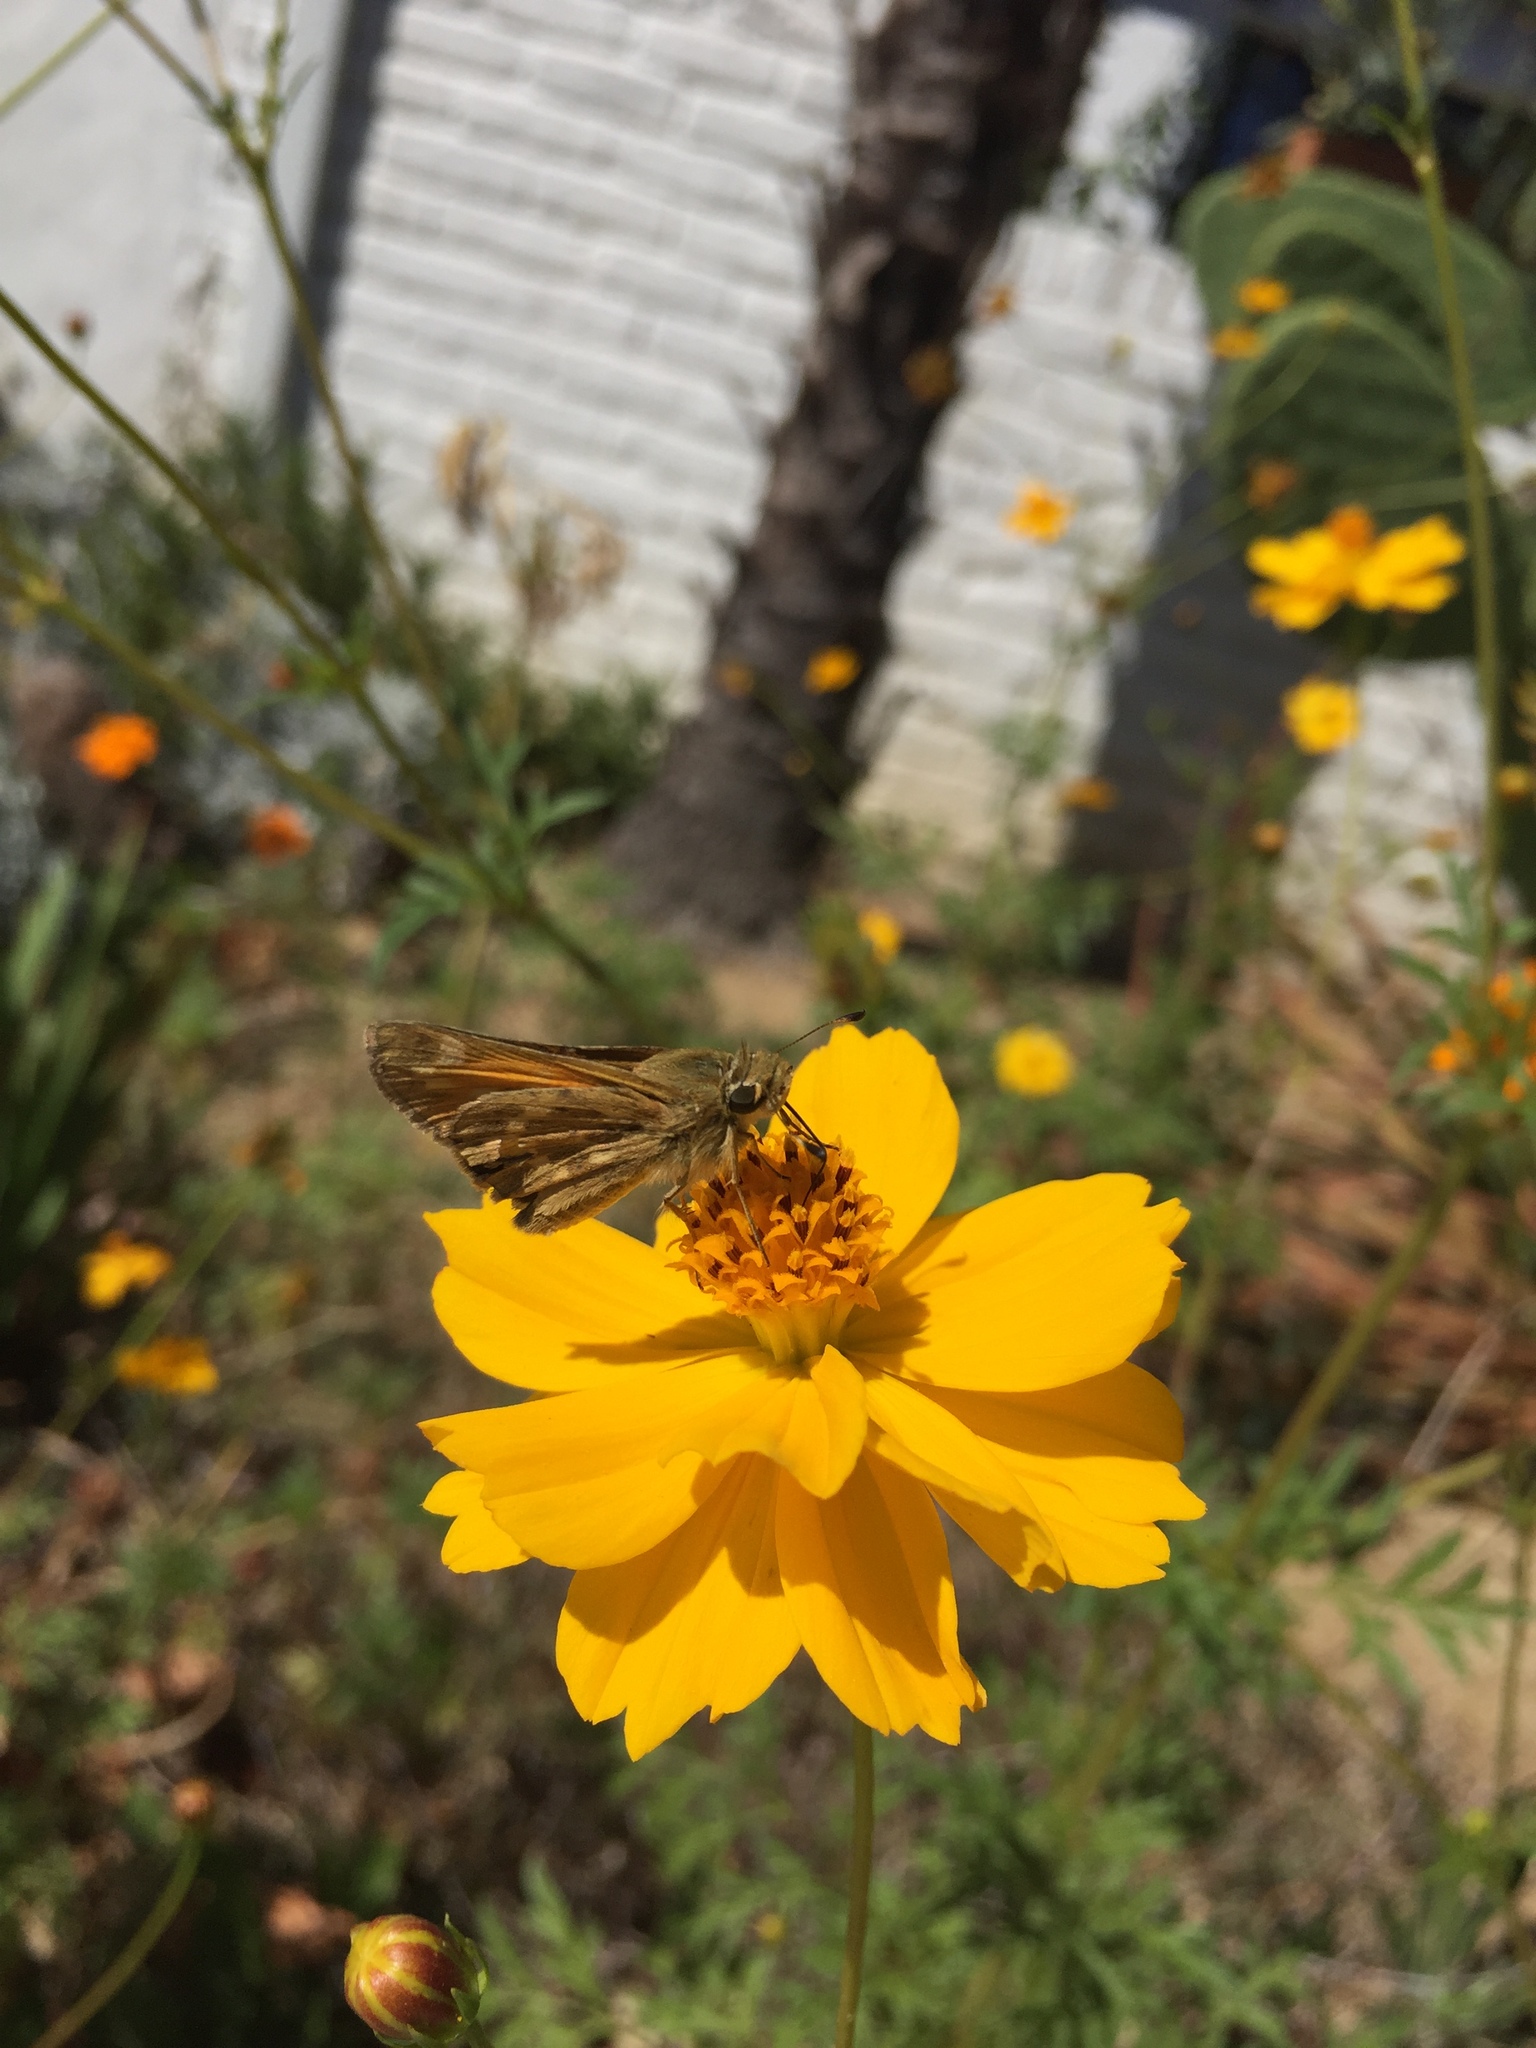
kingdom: Plantae
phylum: Tracheophyta
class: Magnoliopsida
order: Asterales
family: Asteraceae
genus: Cosmos
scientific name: Cosmos sulphureus
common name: Sulphur cosmos
